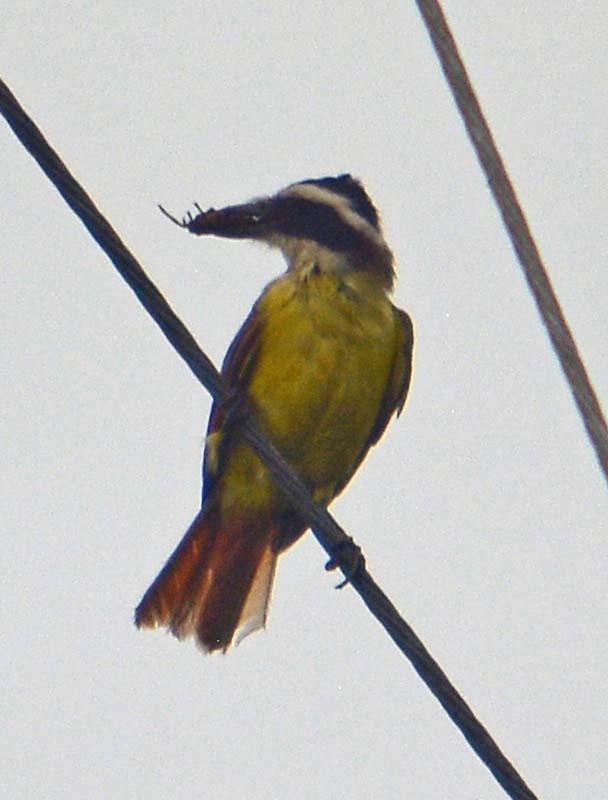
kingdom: Animalia
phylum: Chordata
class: Aves
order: Passeriformes
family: Tyrannidae
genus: Megarynchus
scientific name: Megarynchus pitangua
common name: Boat-billed flycatcher
